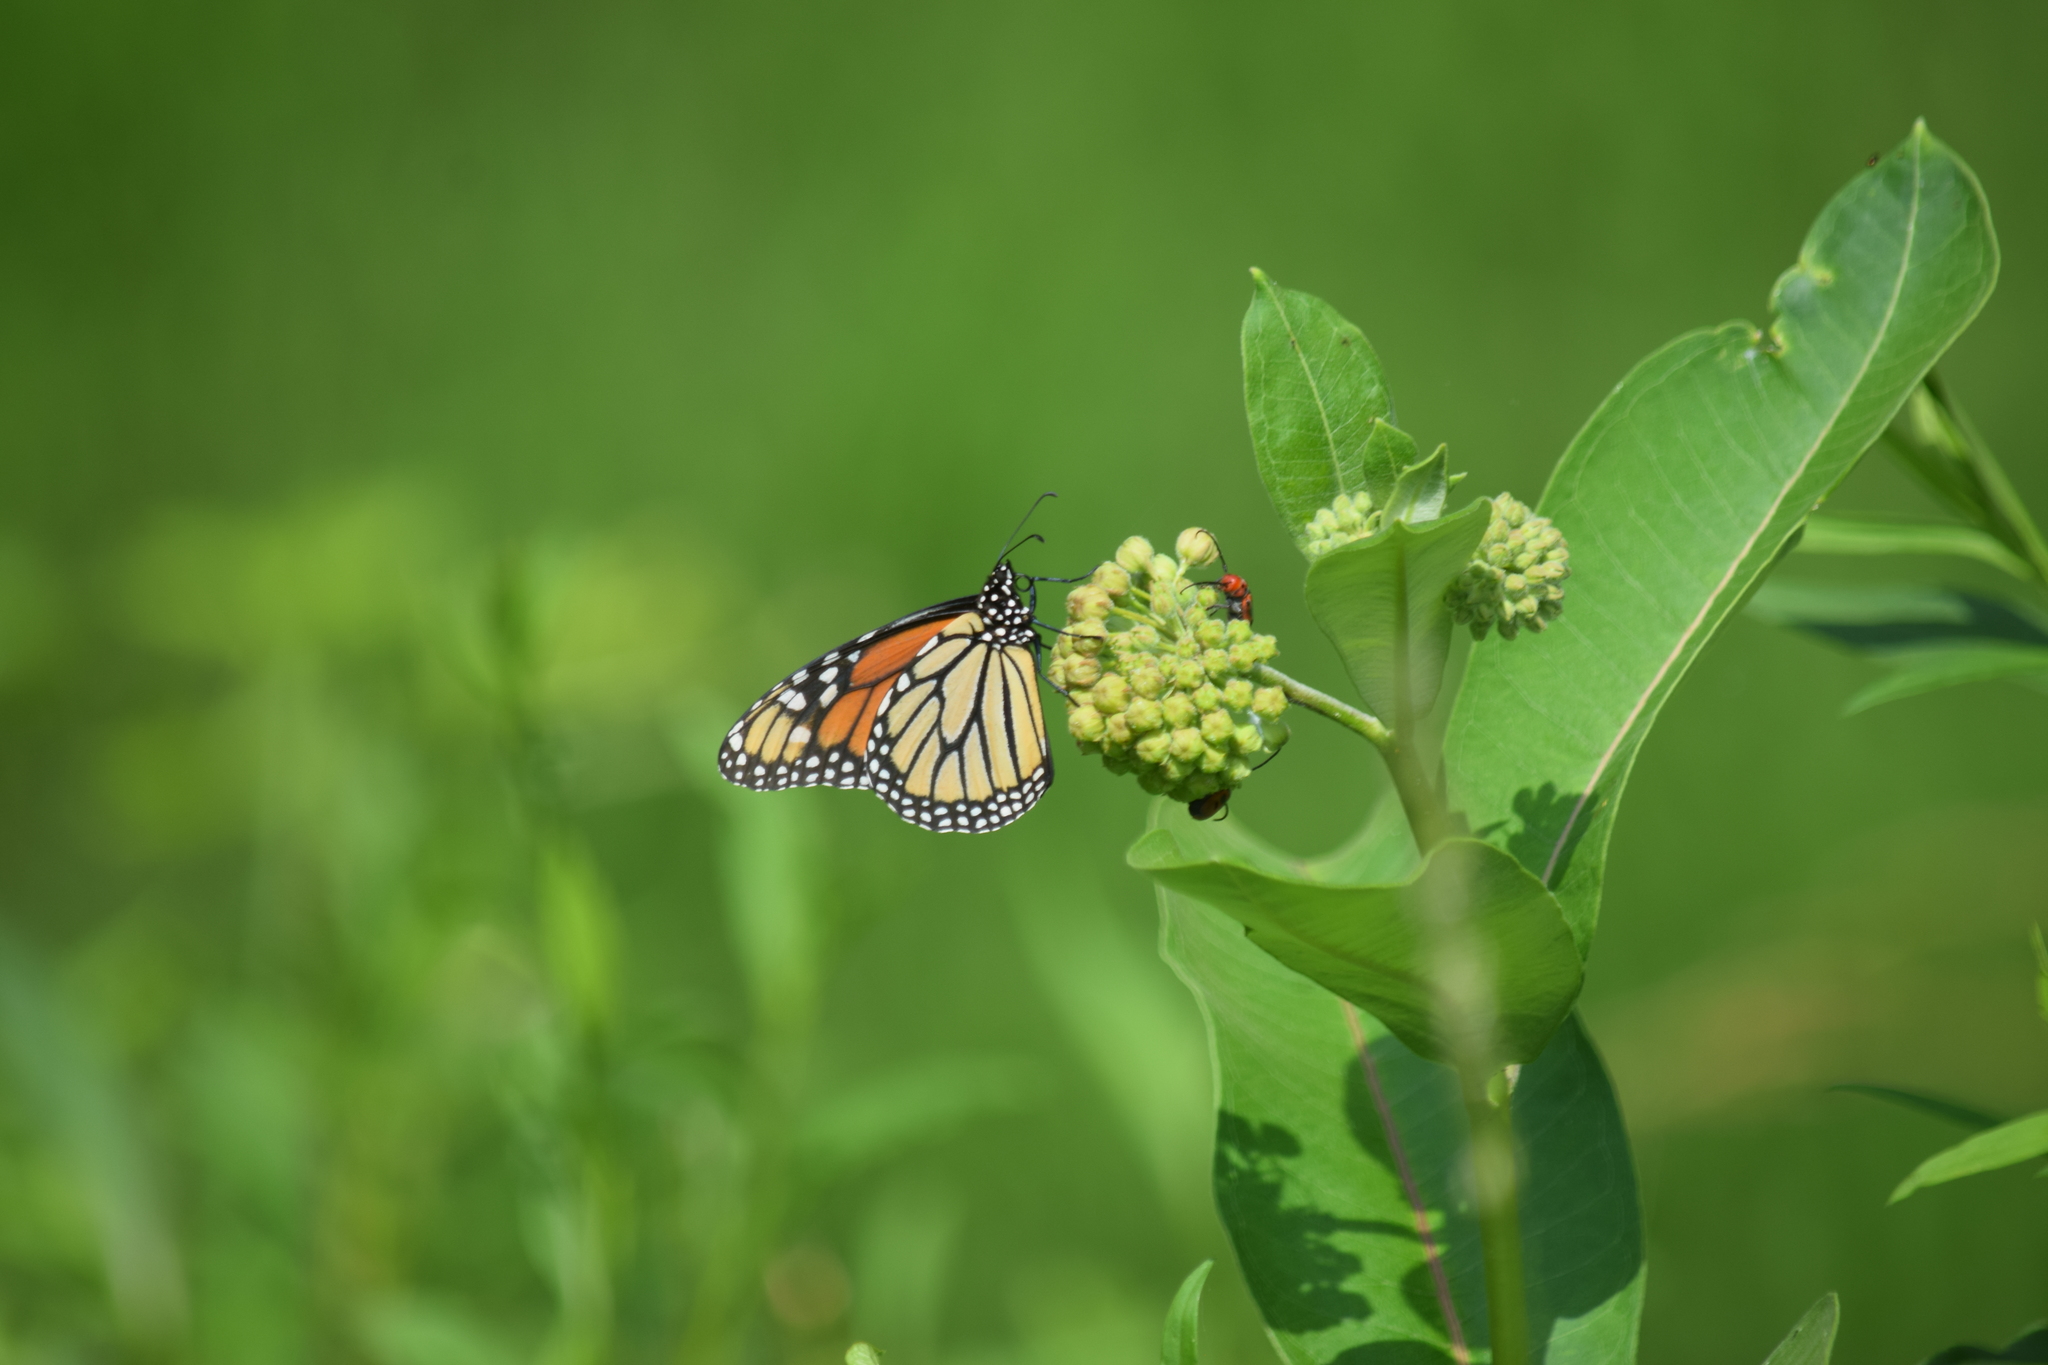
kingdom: Animalia
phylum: Arthropoda
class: Insecta
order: Lepidoptera
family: Nymphalidae
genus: Danaus
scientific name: Danaus plexippus
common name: Monarch
